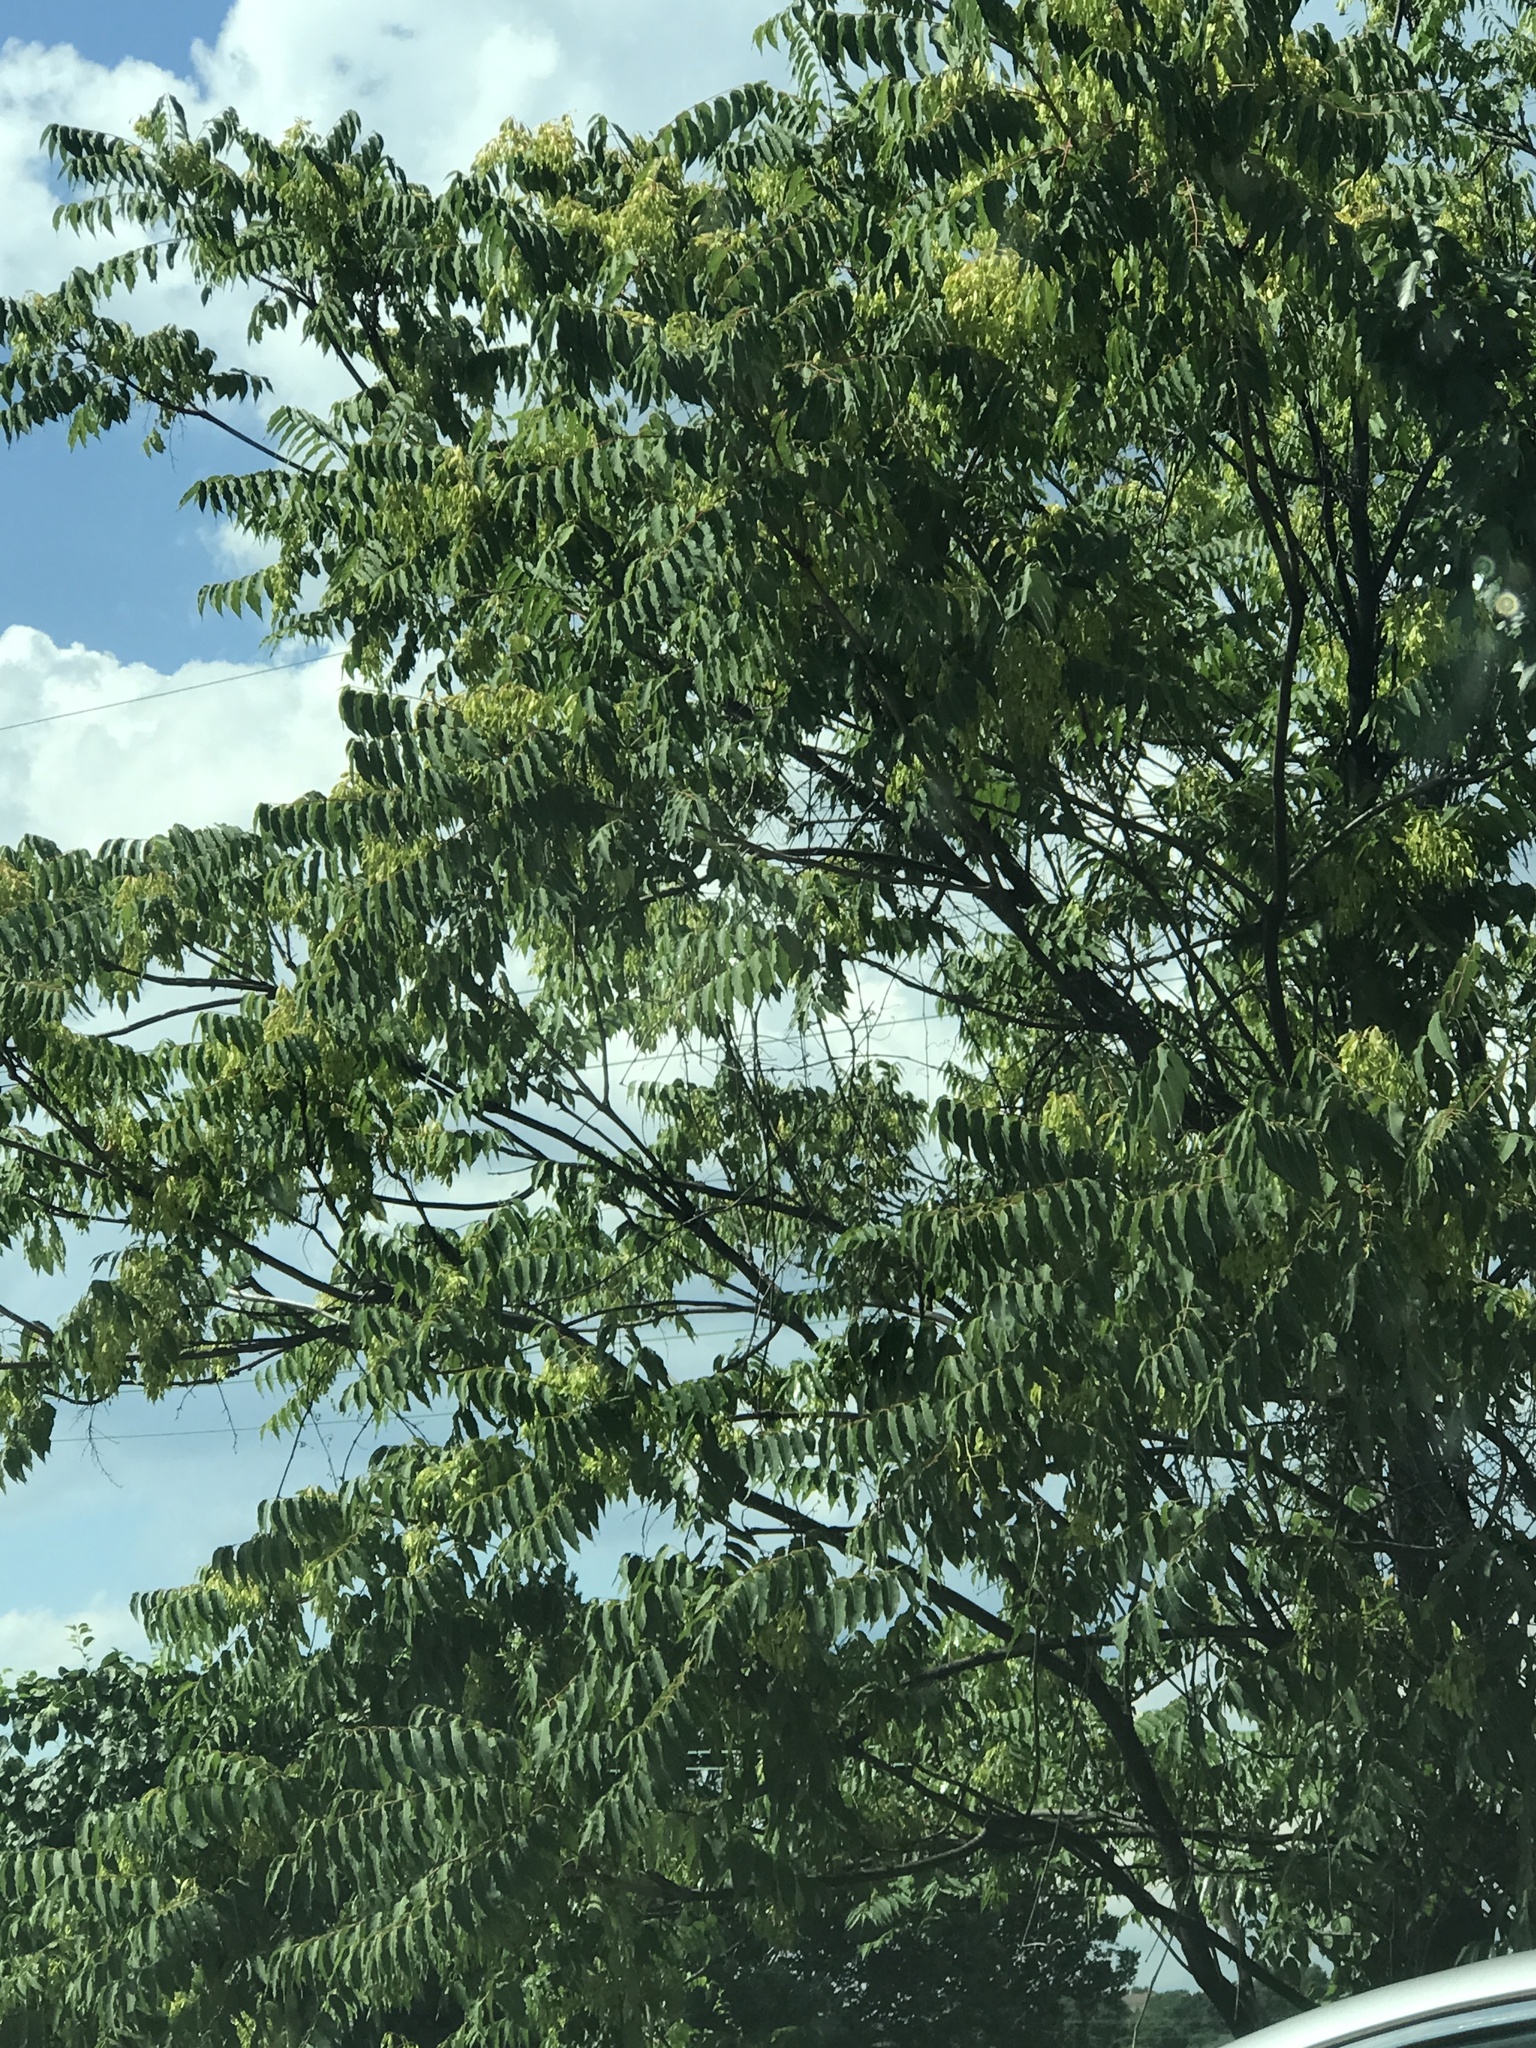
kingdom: Plantae
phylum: Tracheophyta
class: Magnoliopsida
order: Sapindales
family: Simaroubaceae
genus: Ailanthus
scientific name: Ailanthus altissima
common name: Tree-of-heaven
